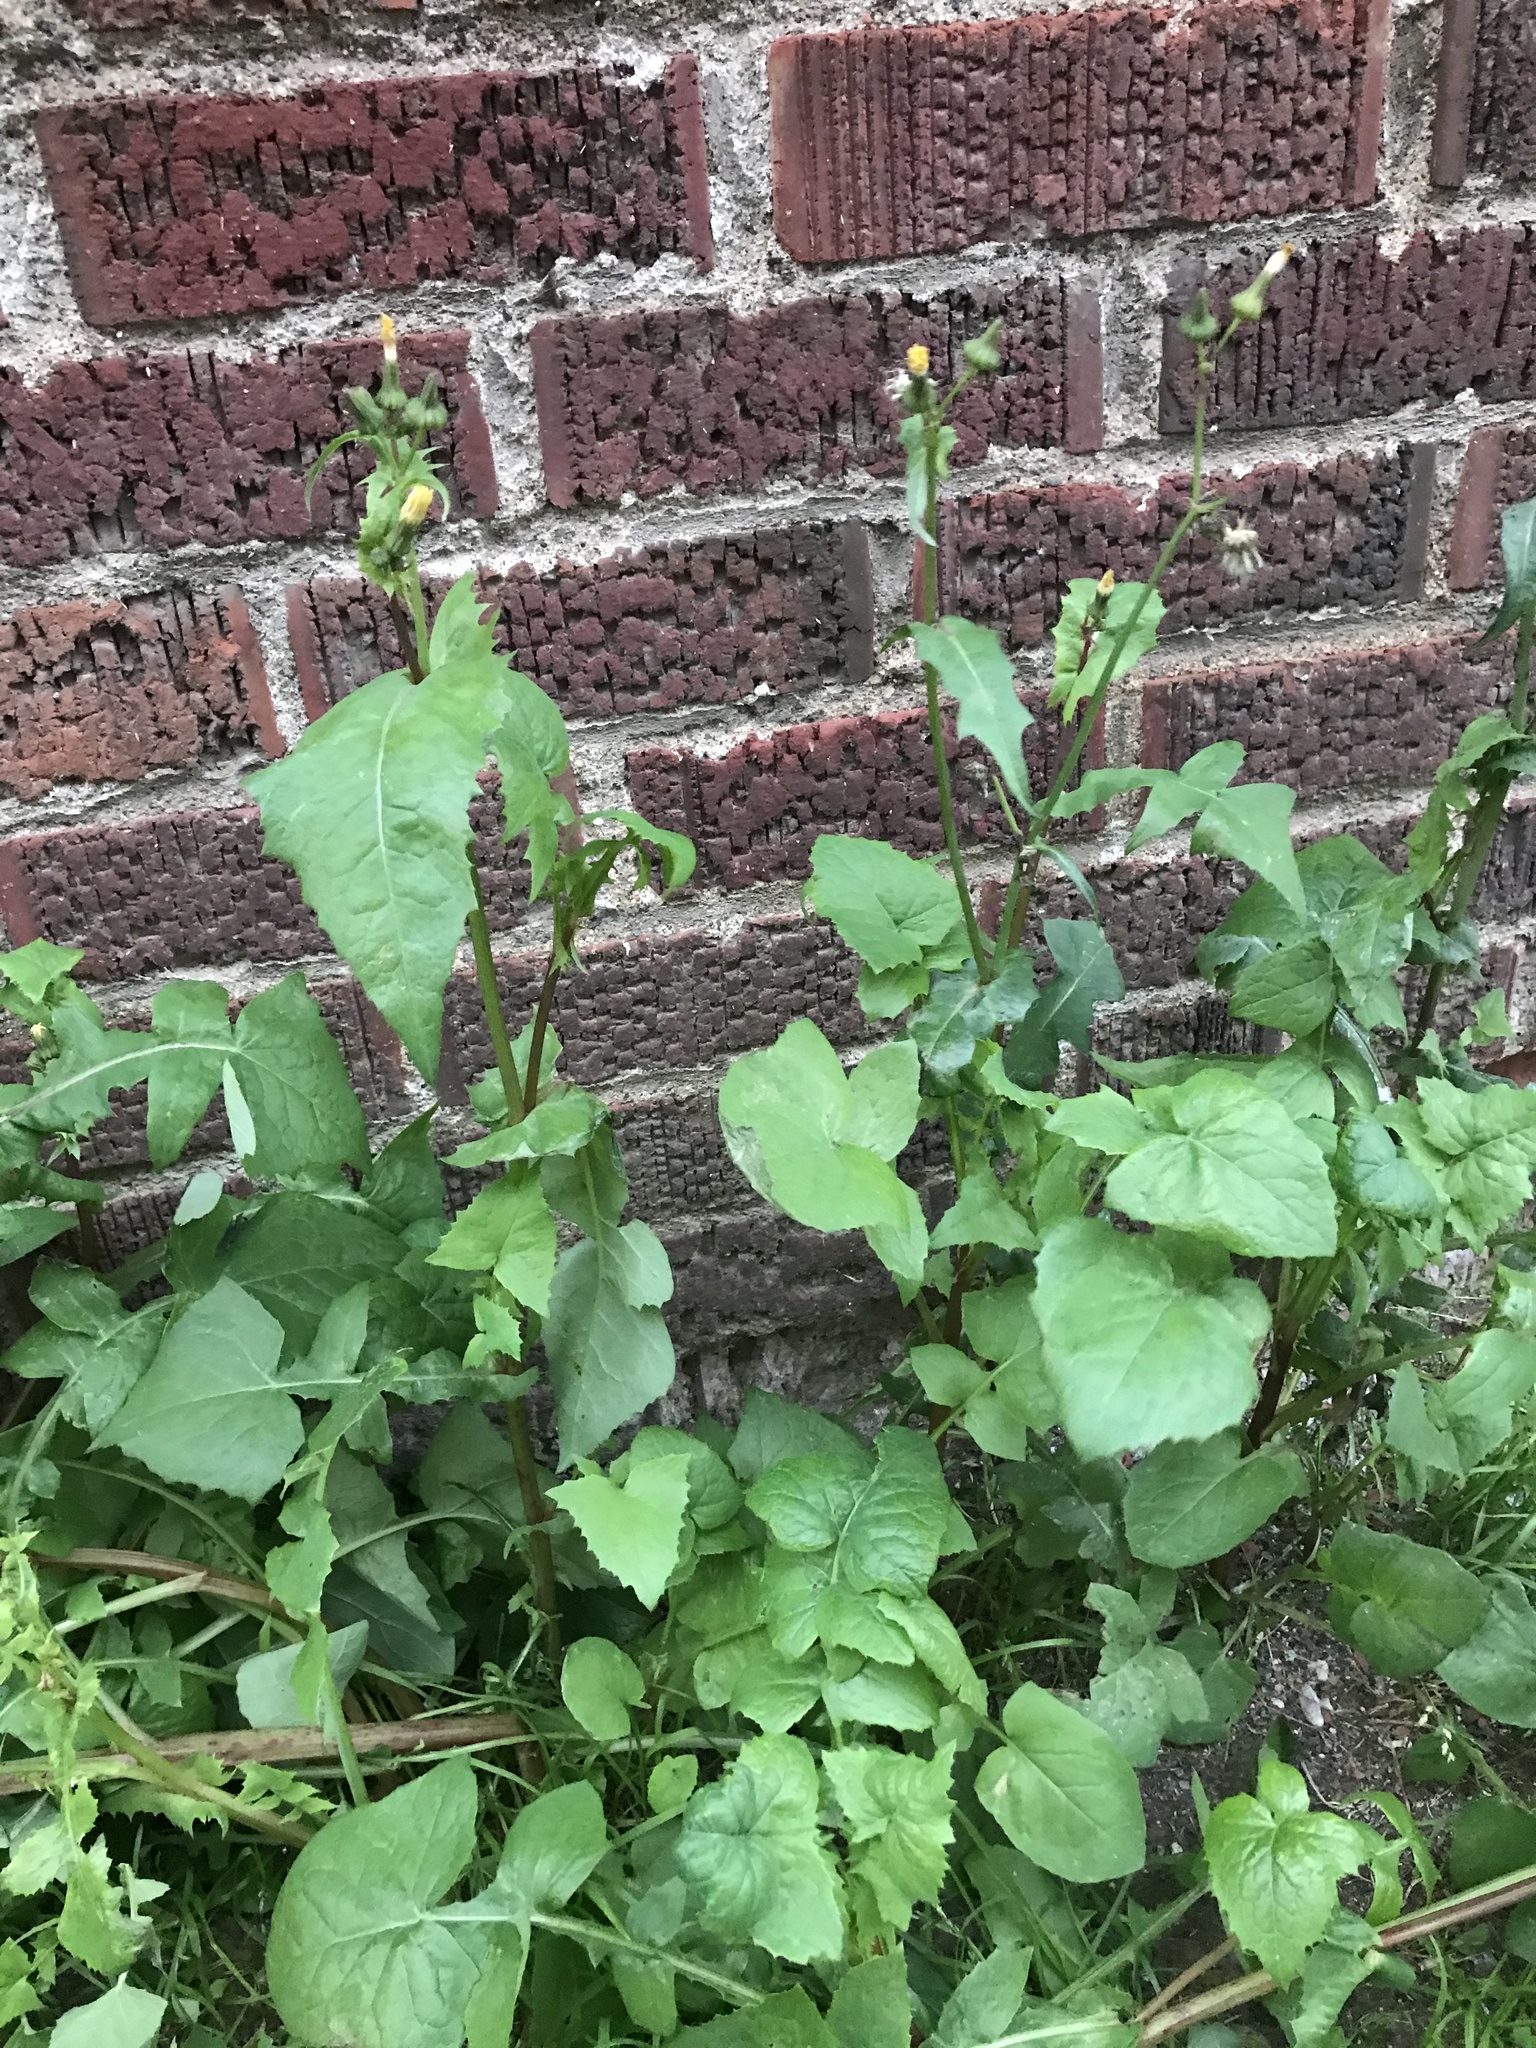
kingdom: Plantae
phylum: Tracheophyta
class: Magnoliopsida
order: Asterales
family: Asteraceae
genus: Sonchus
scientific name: Sonchus oleraceus
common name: Common sowthistle
